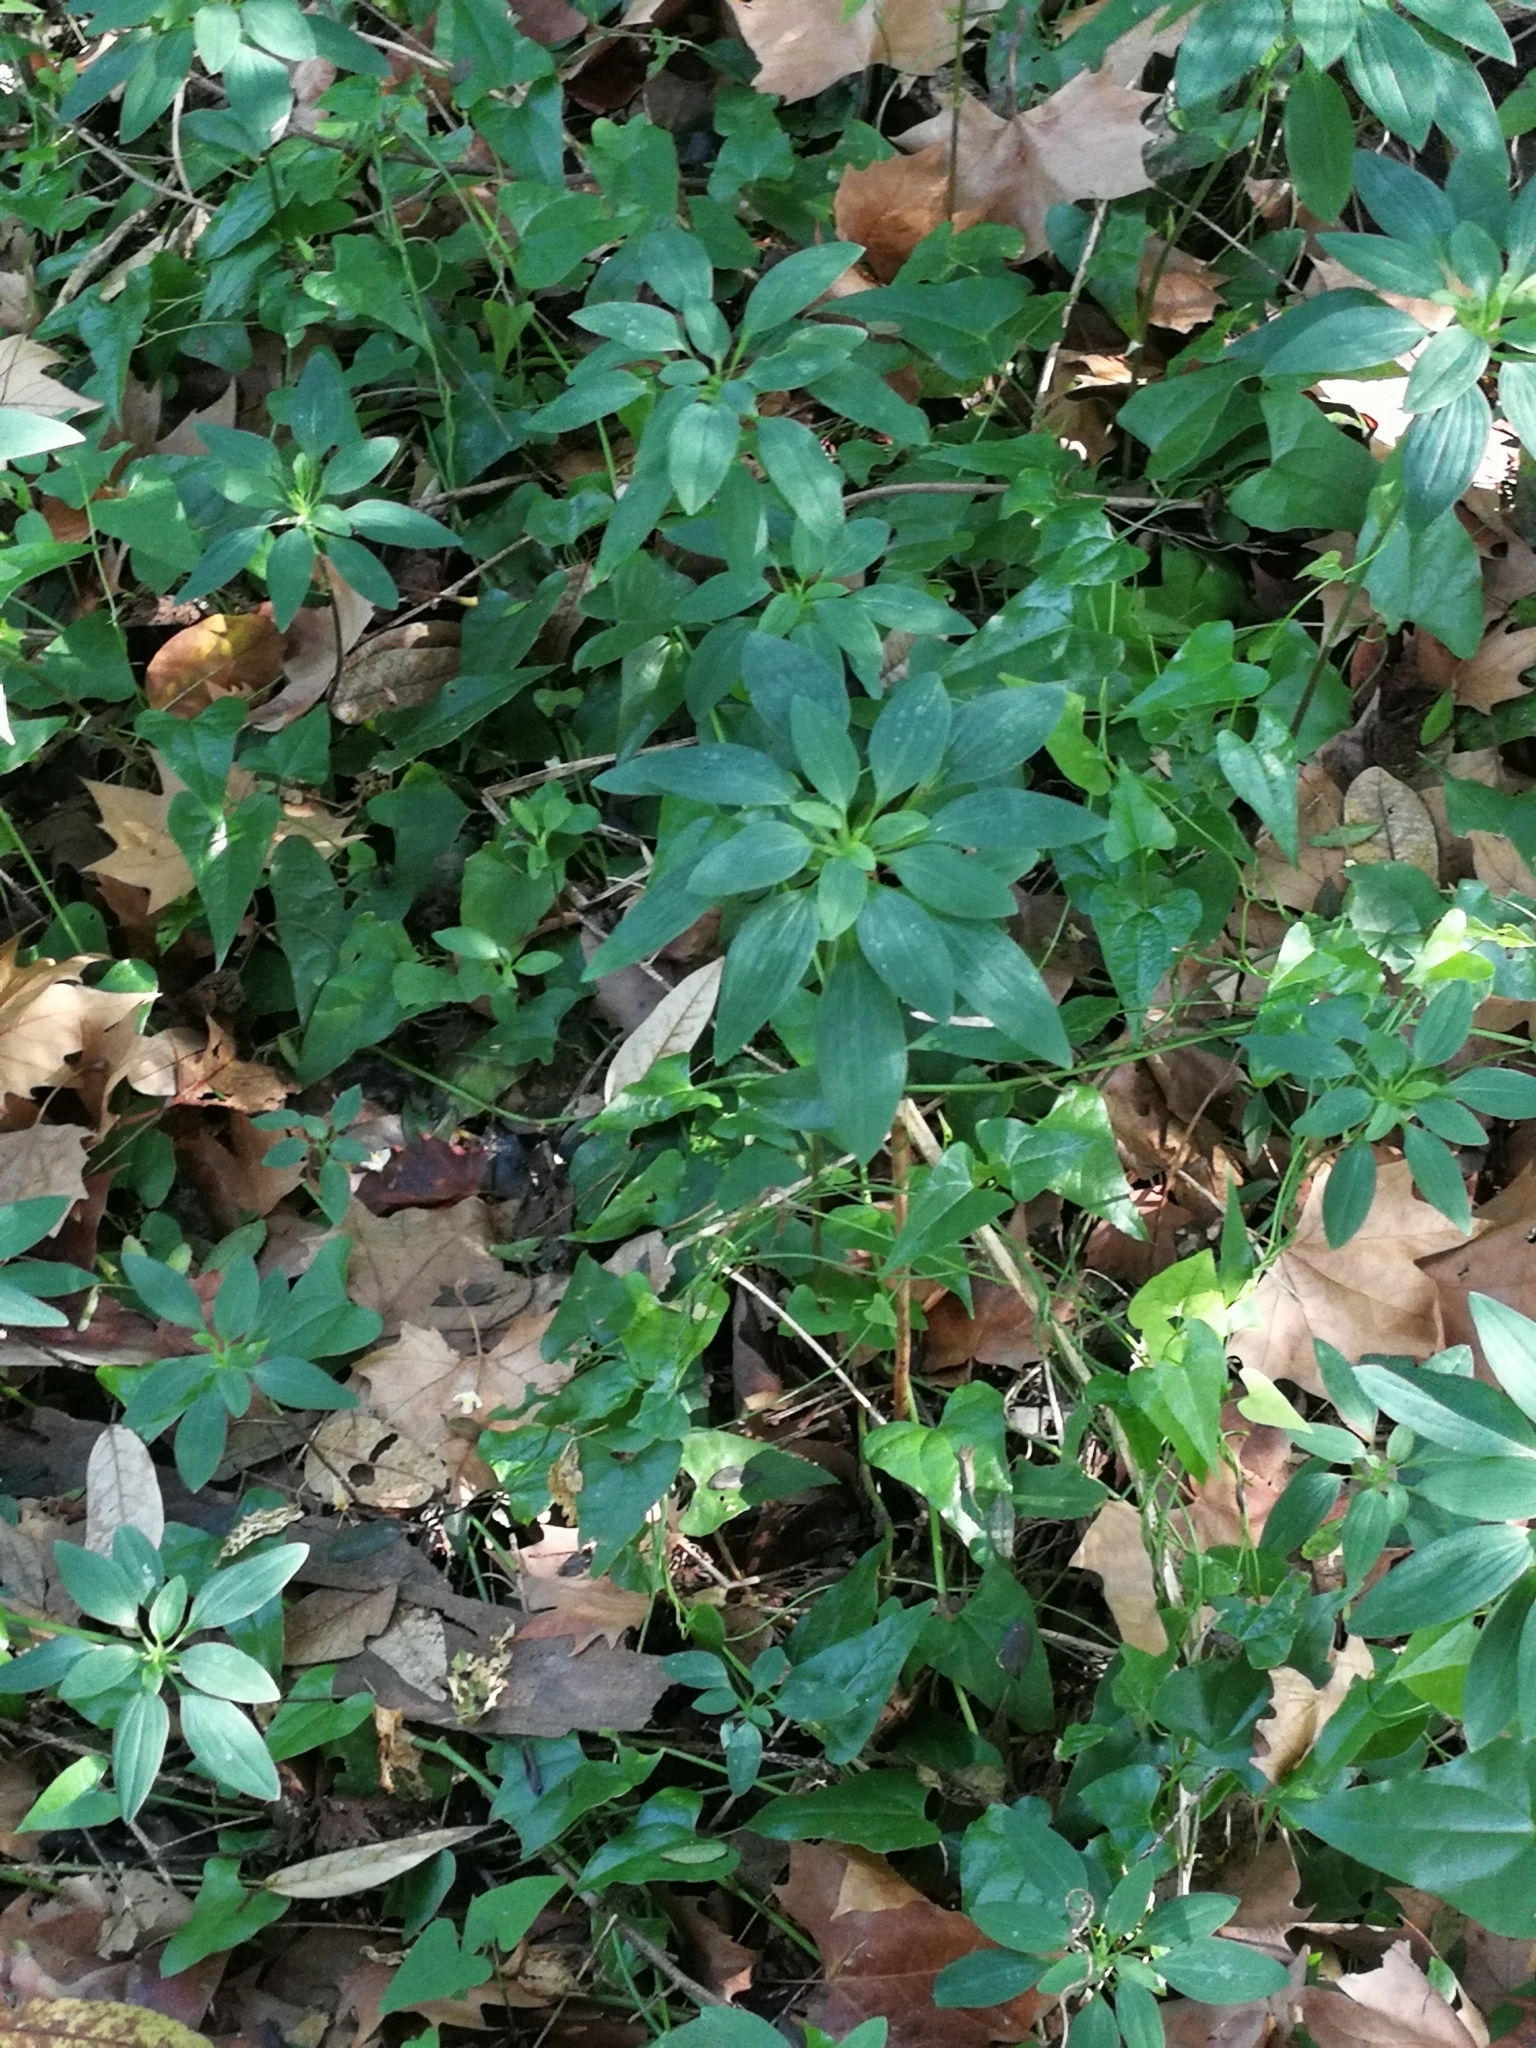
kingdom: Plantae
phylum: Tracheophyta
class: Liliopsida
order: Liliales
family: Alstroemeriaceae
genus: Alstroemeria
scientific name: Alstroemeria psittacina
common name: Peruvian-lily
